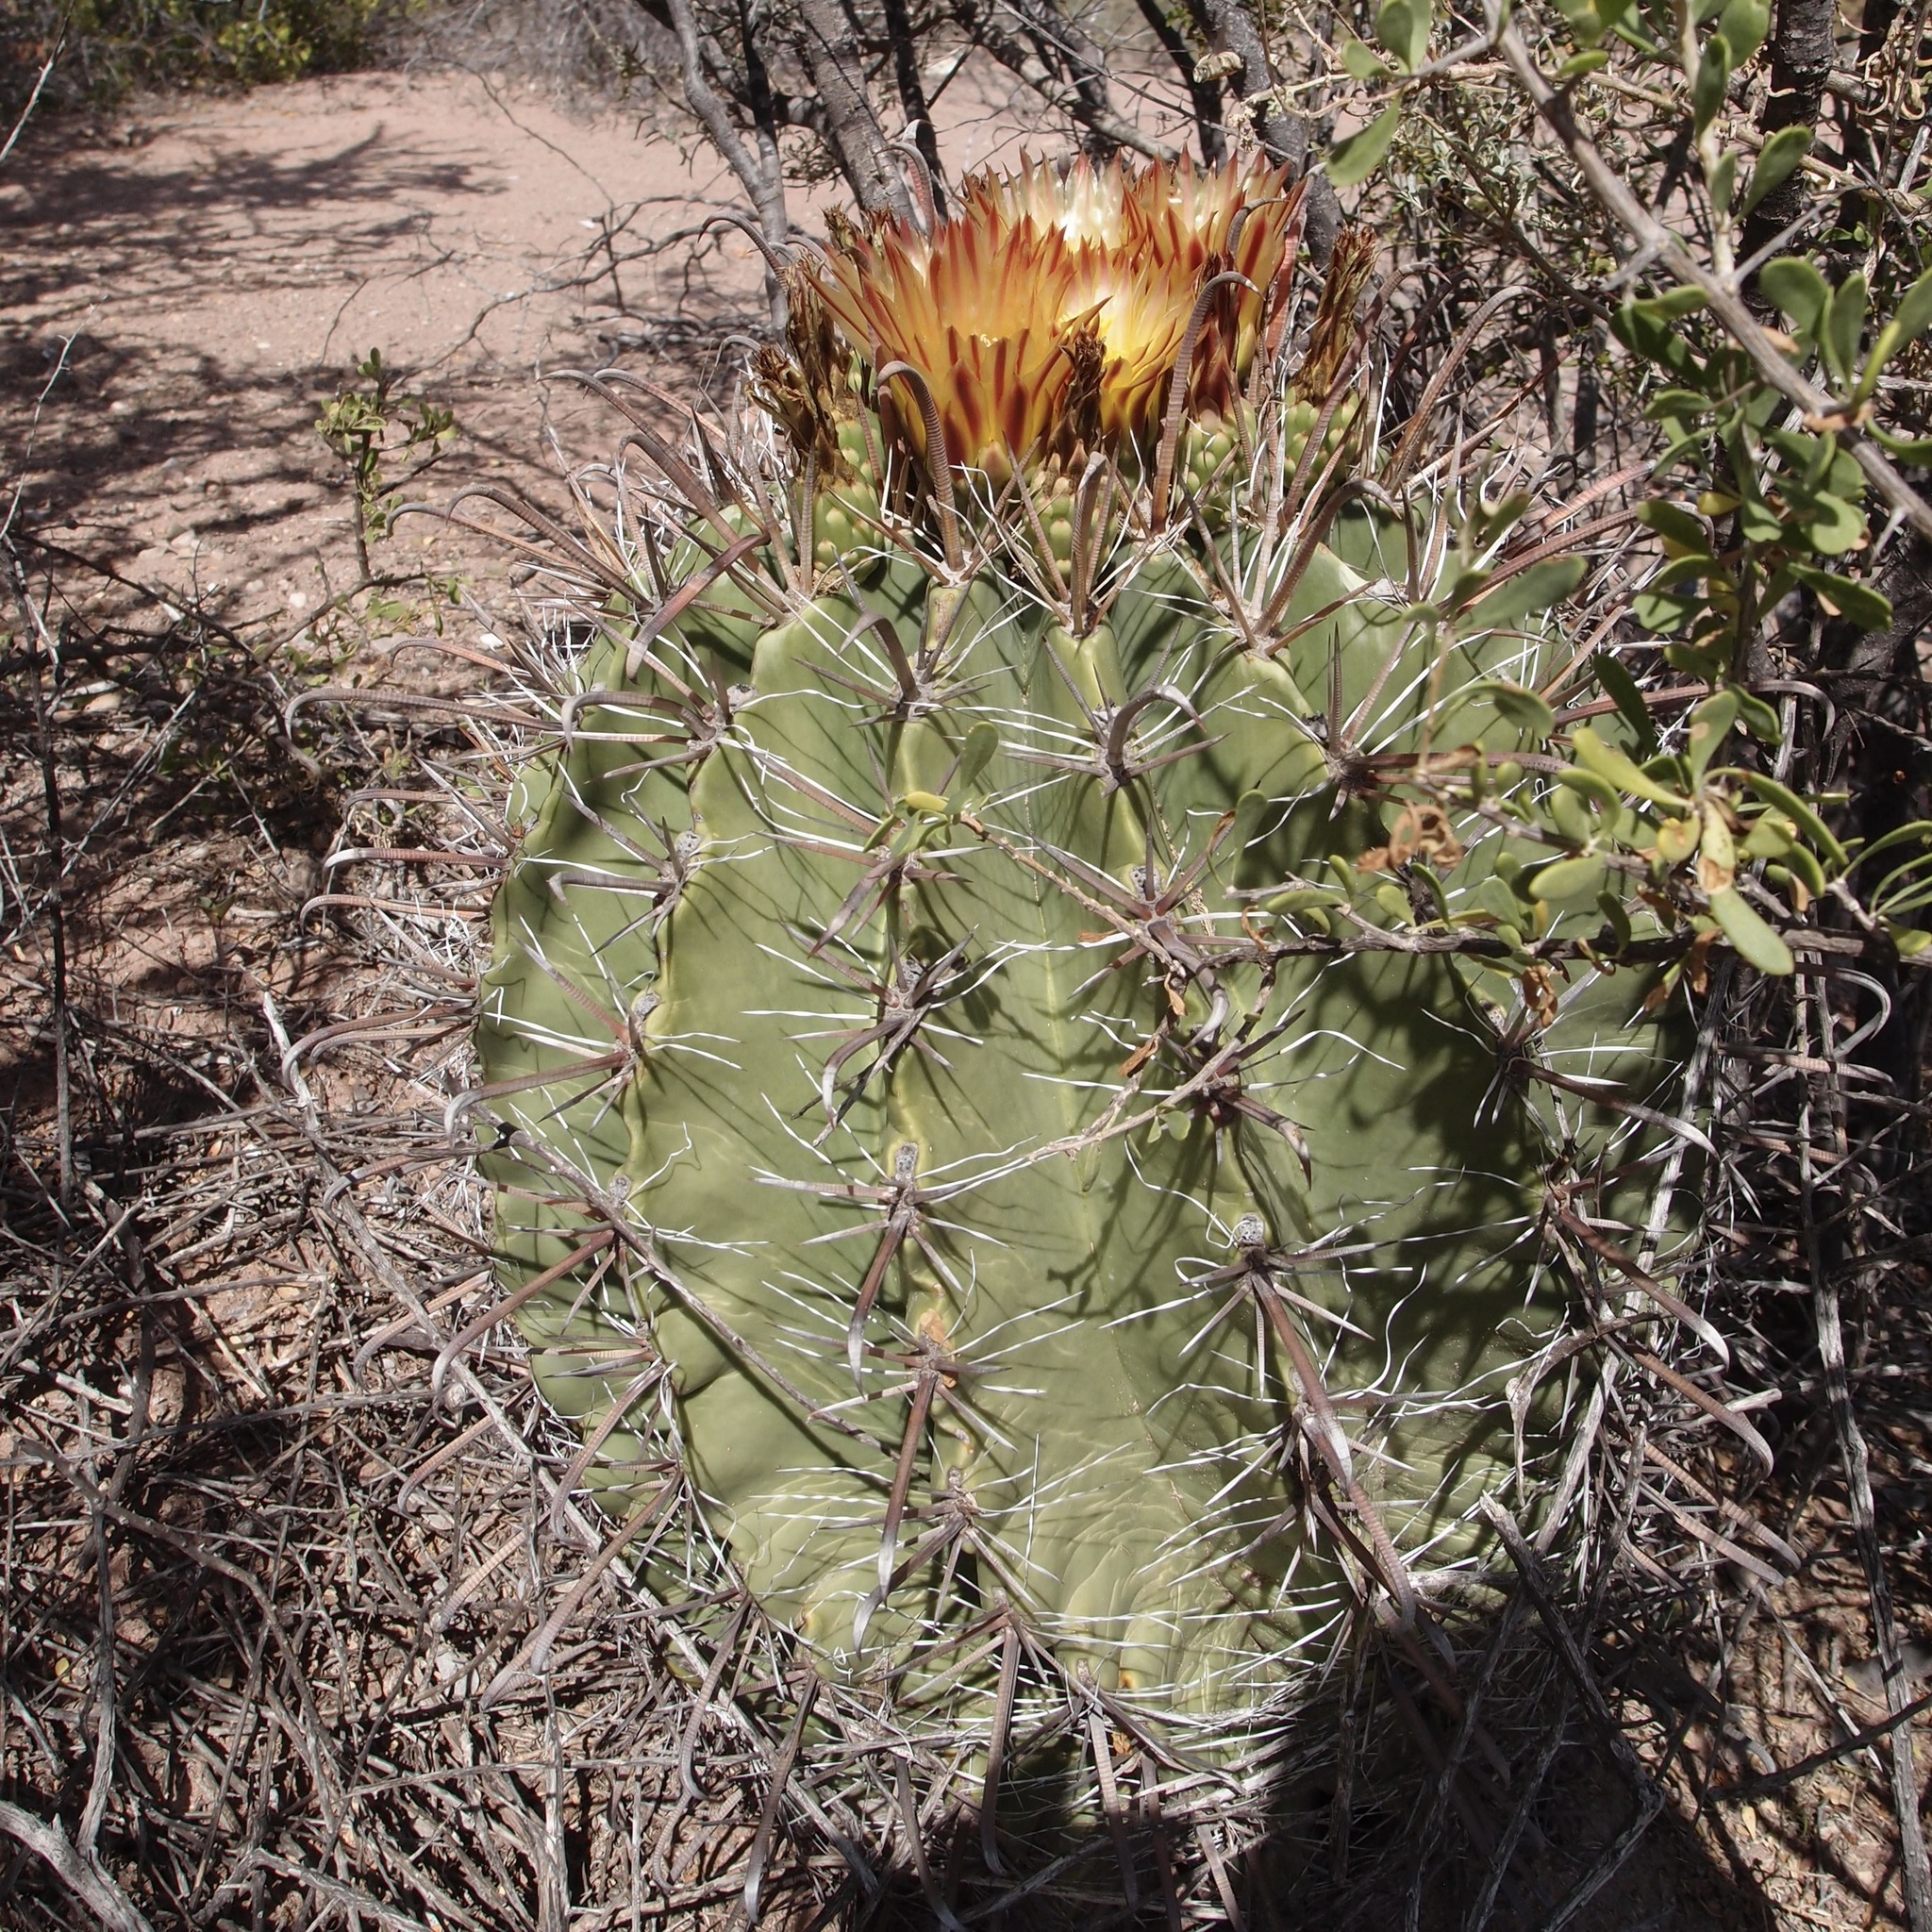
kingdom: Plantae
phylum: Tracheophyta
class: Magnoliopsida
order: Caryophyllales
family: Cactaceae
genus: Ferocactus
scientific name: Ferocactus wislizeni
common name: Candy barrel cactus
